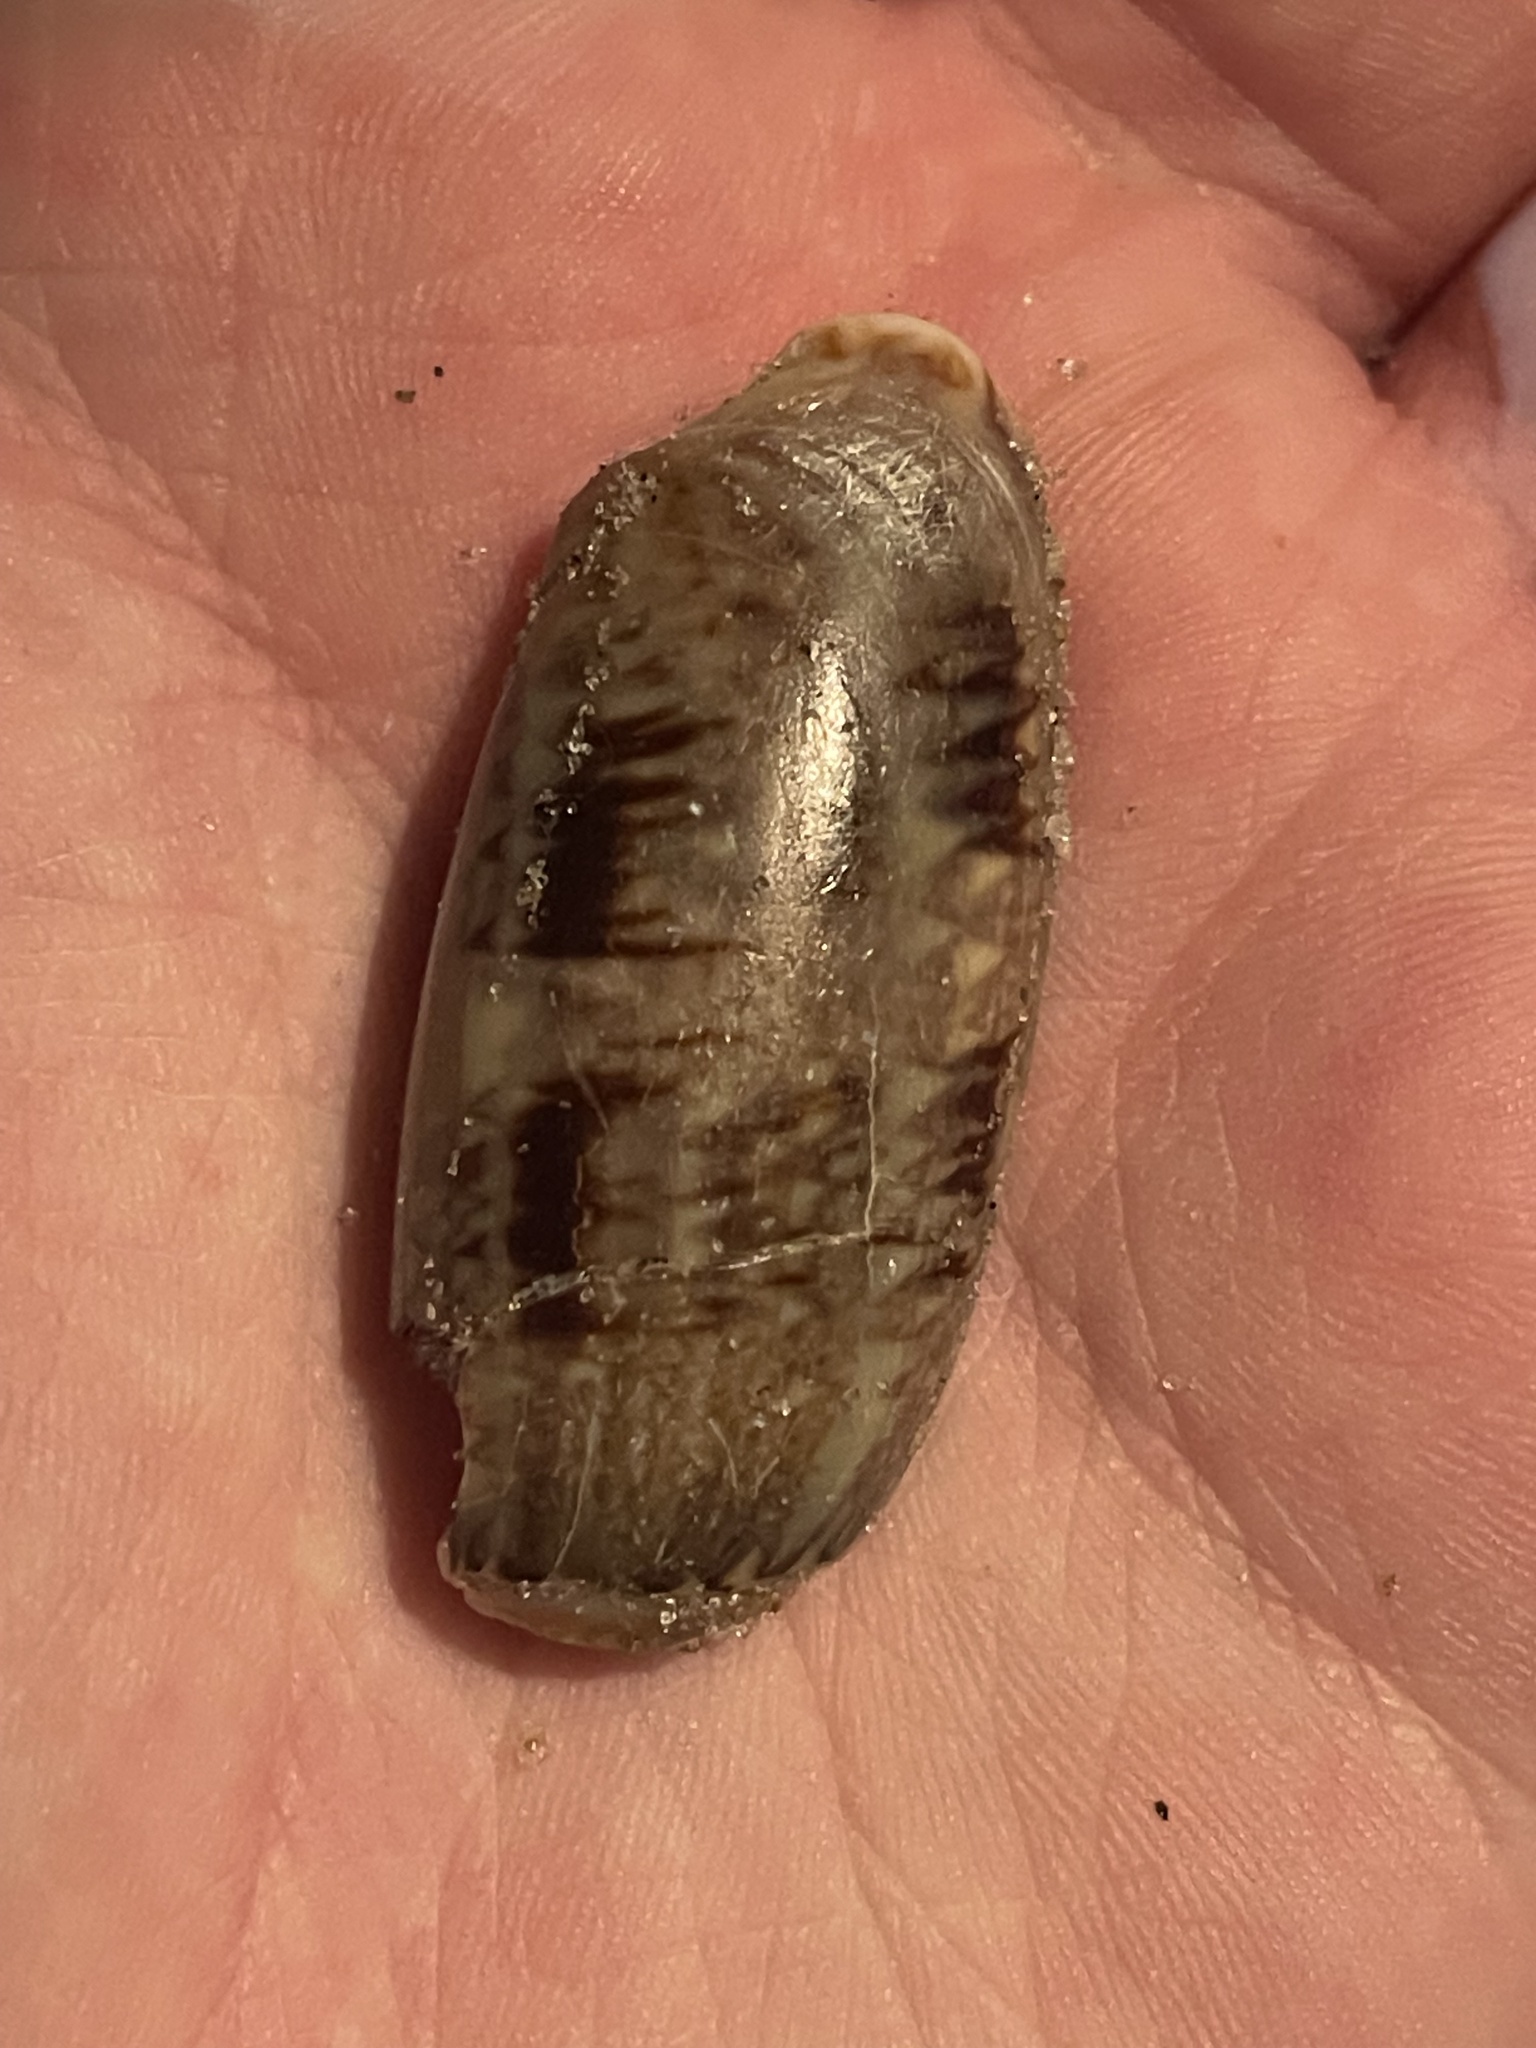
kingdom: Animalia
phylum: Mollusca
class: Gastropoda
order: Neogastropoda
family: Olividae
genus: Oliva
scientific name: Oliva sayana
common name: Lettered olive
